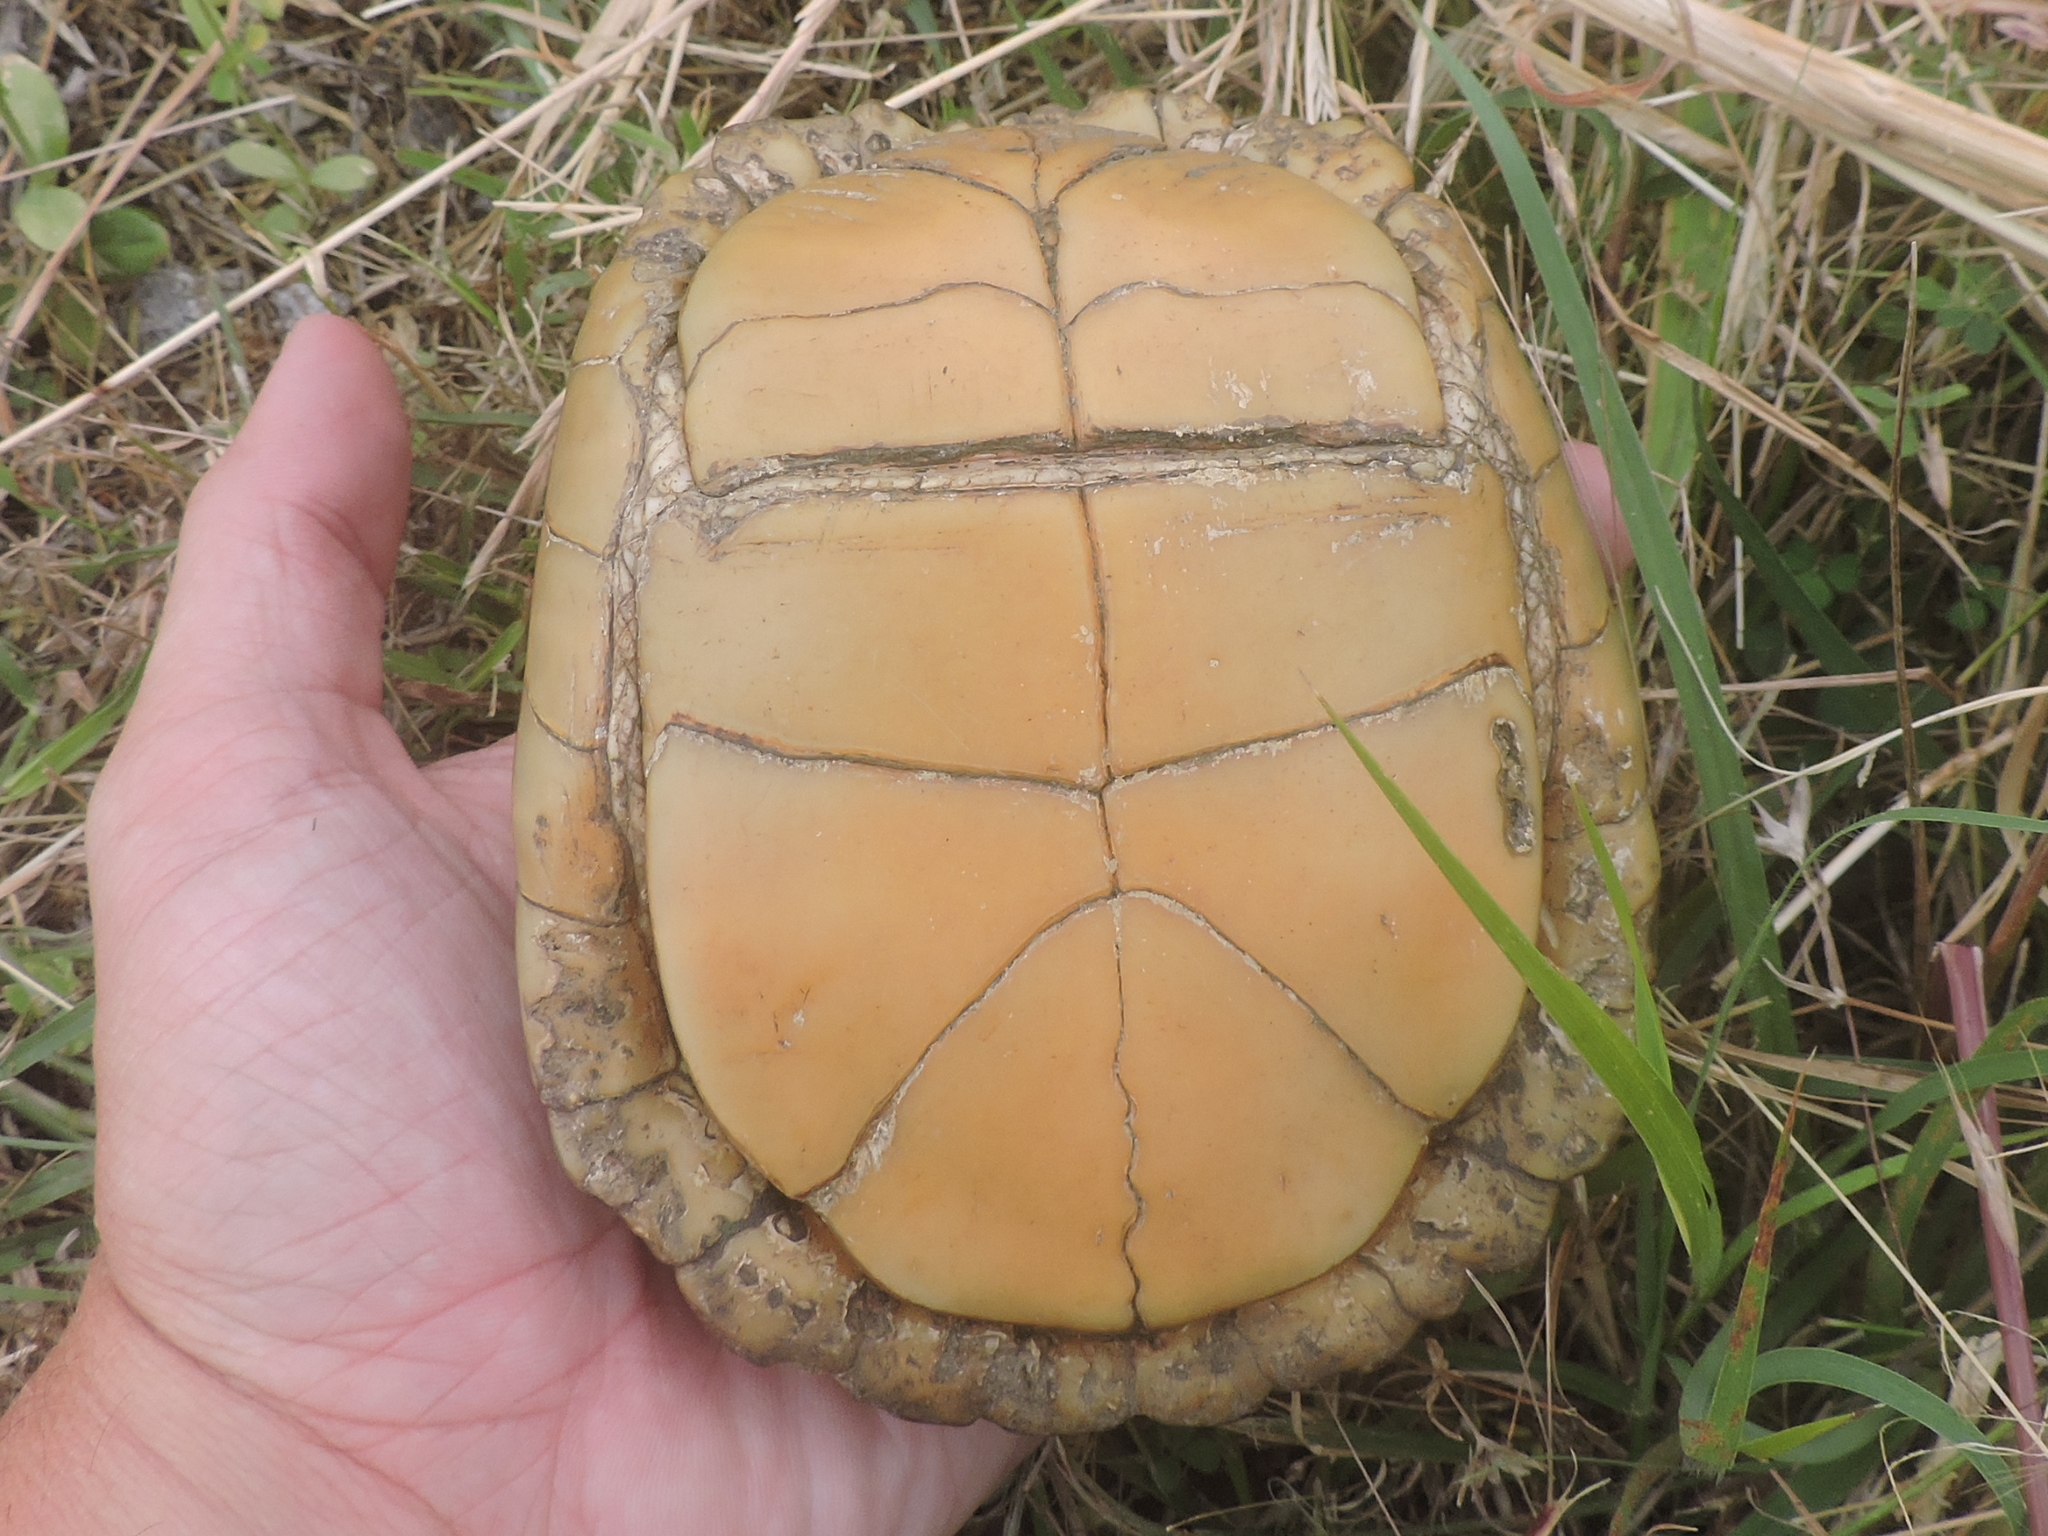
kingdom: Animalia
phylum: Chordata
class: Testudines
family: Emydidae
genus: Terrapene
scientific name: Terrapene carolina
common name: Common box turtle
